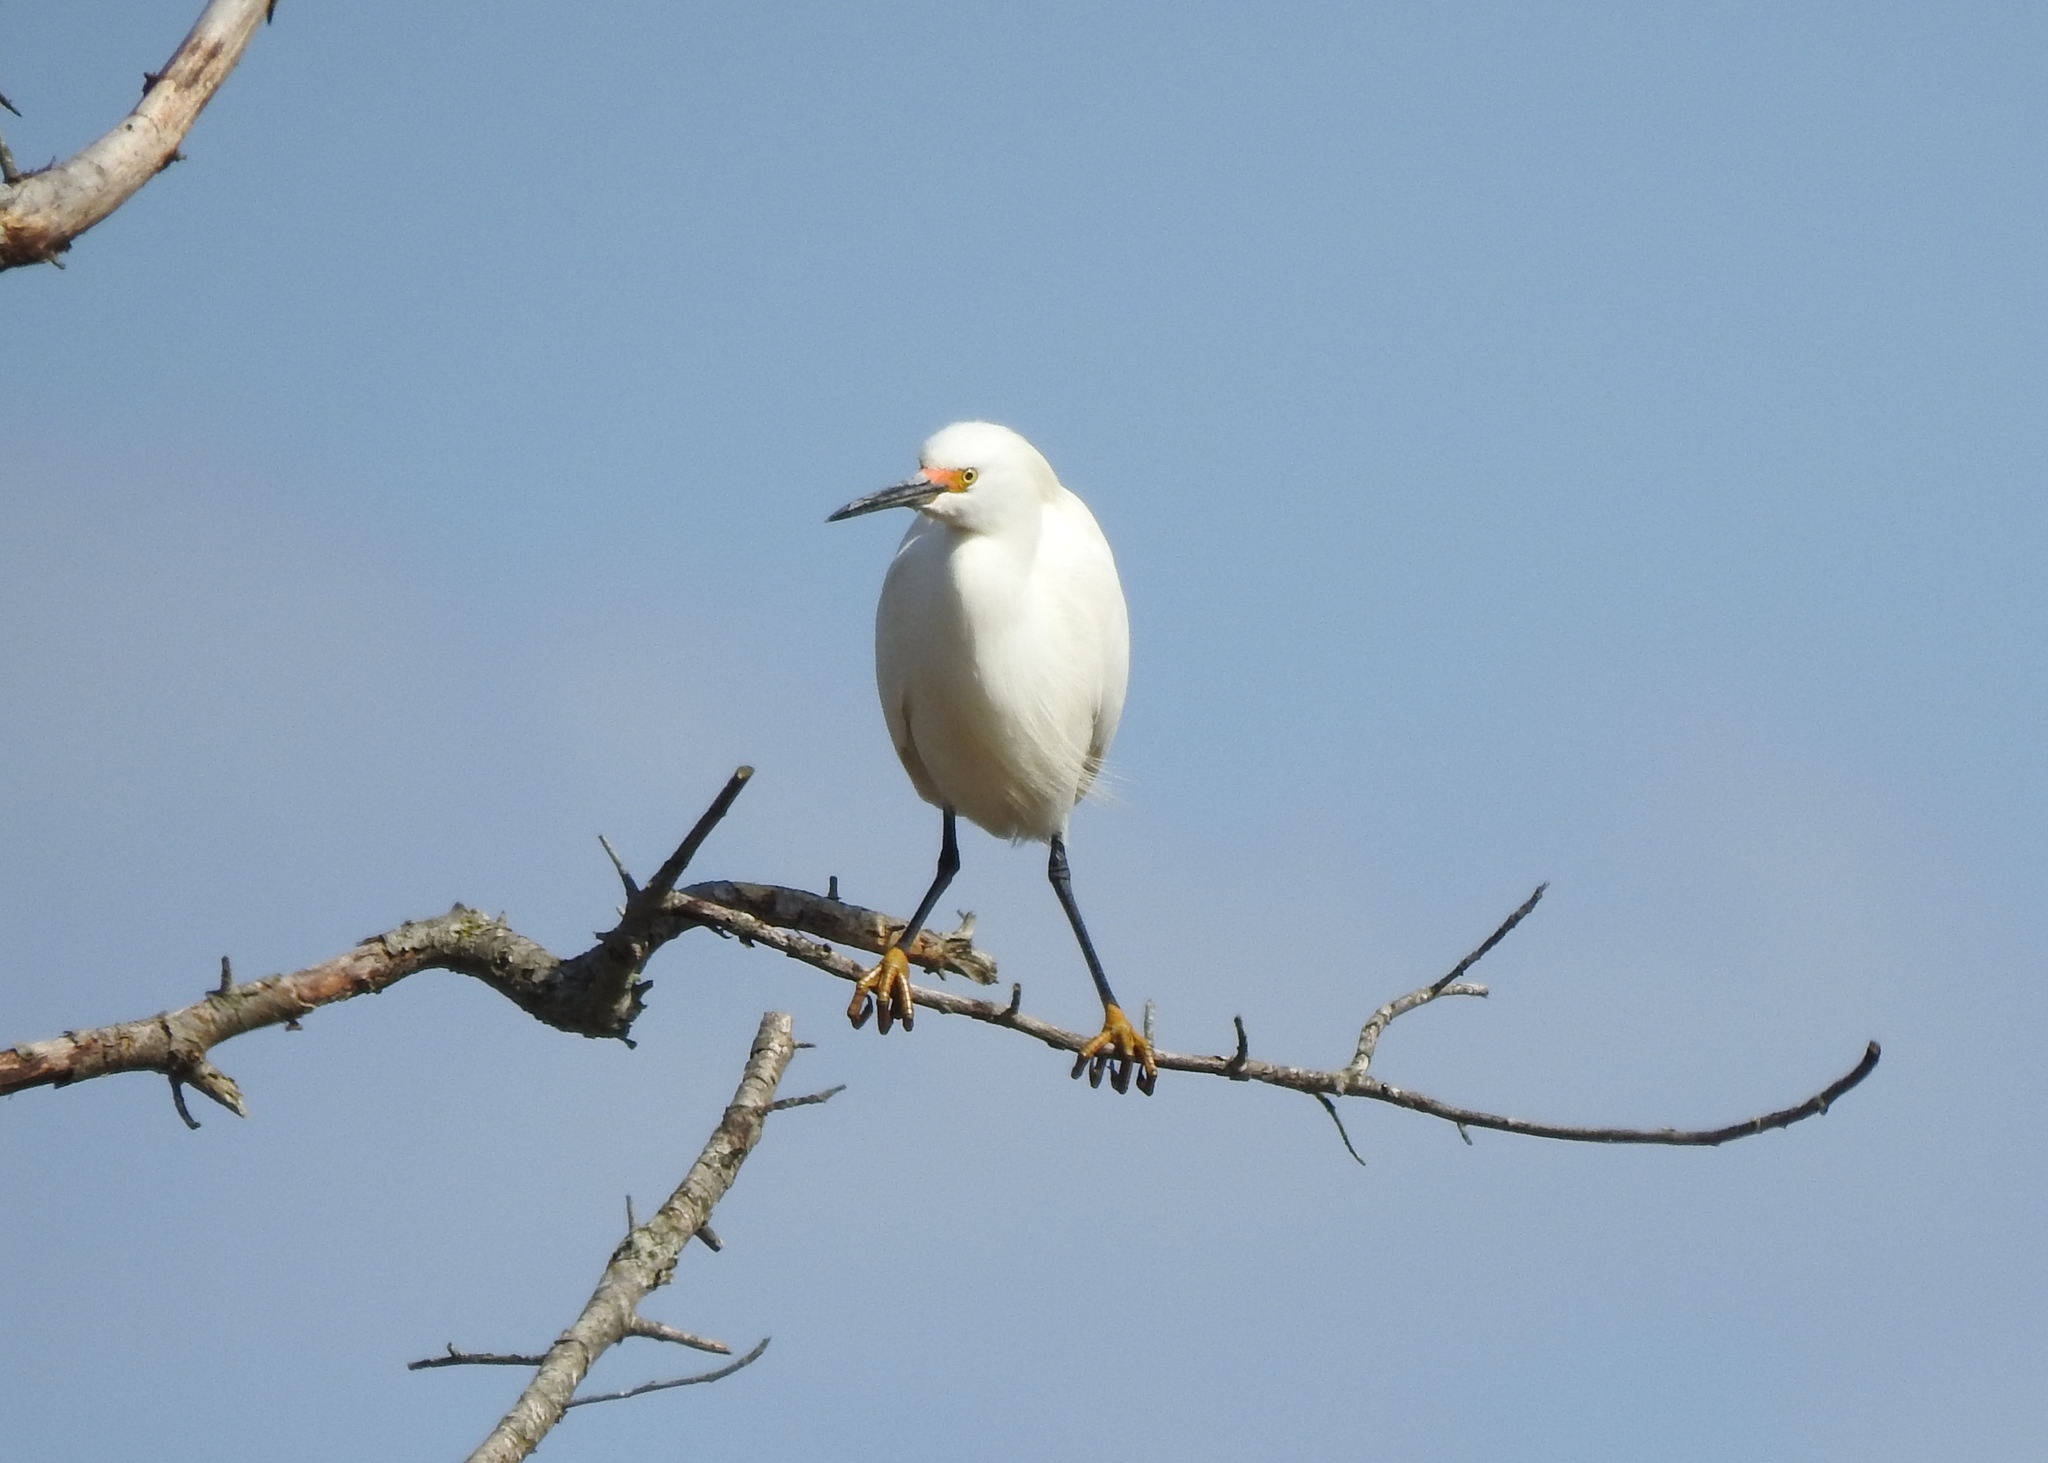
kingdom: Animalia
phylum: Chordata
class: Aves
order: Pelecaniformes
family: Ardeidae
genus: Egretta
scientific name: Egretta thula
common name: Snowy egret
